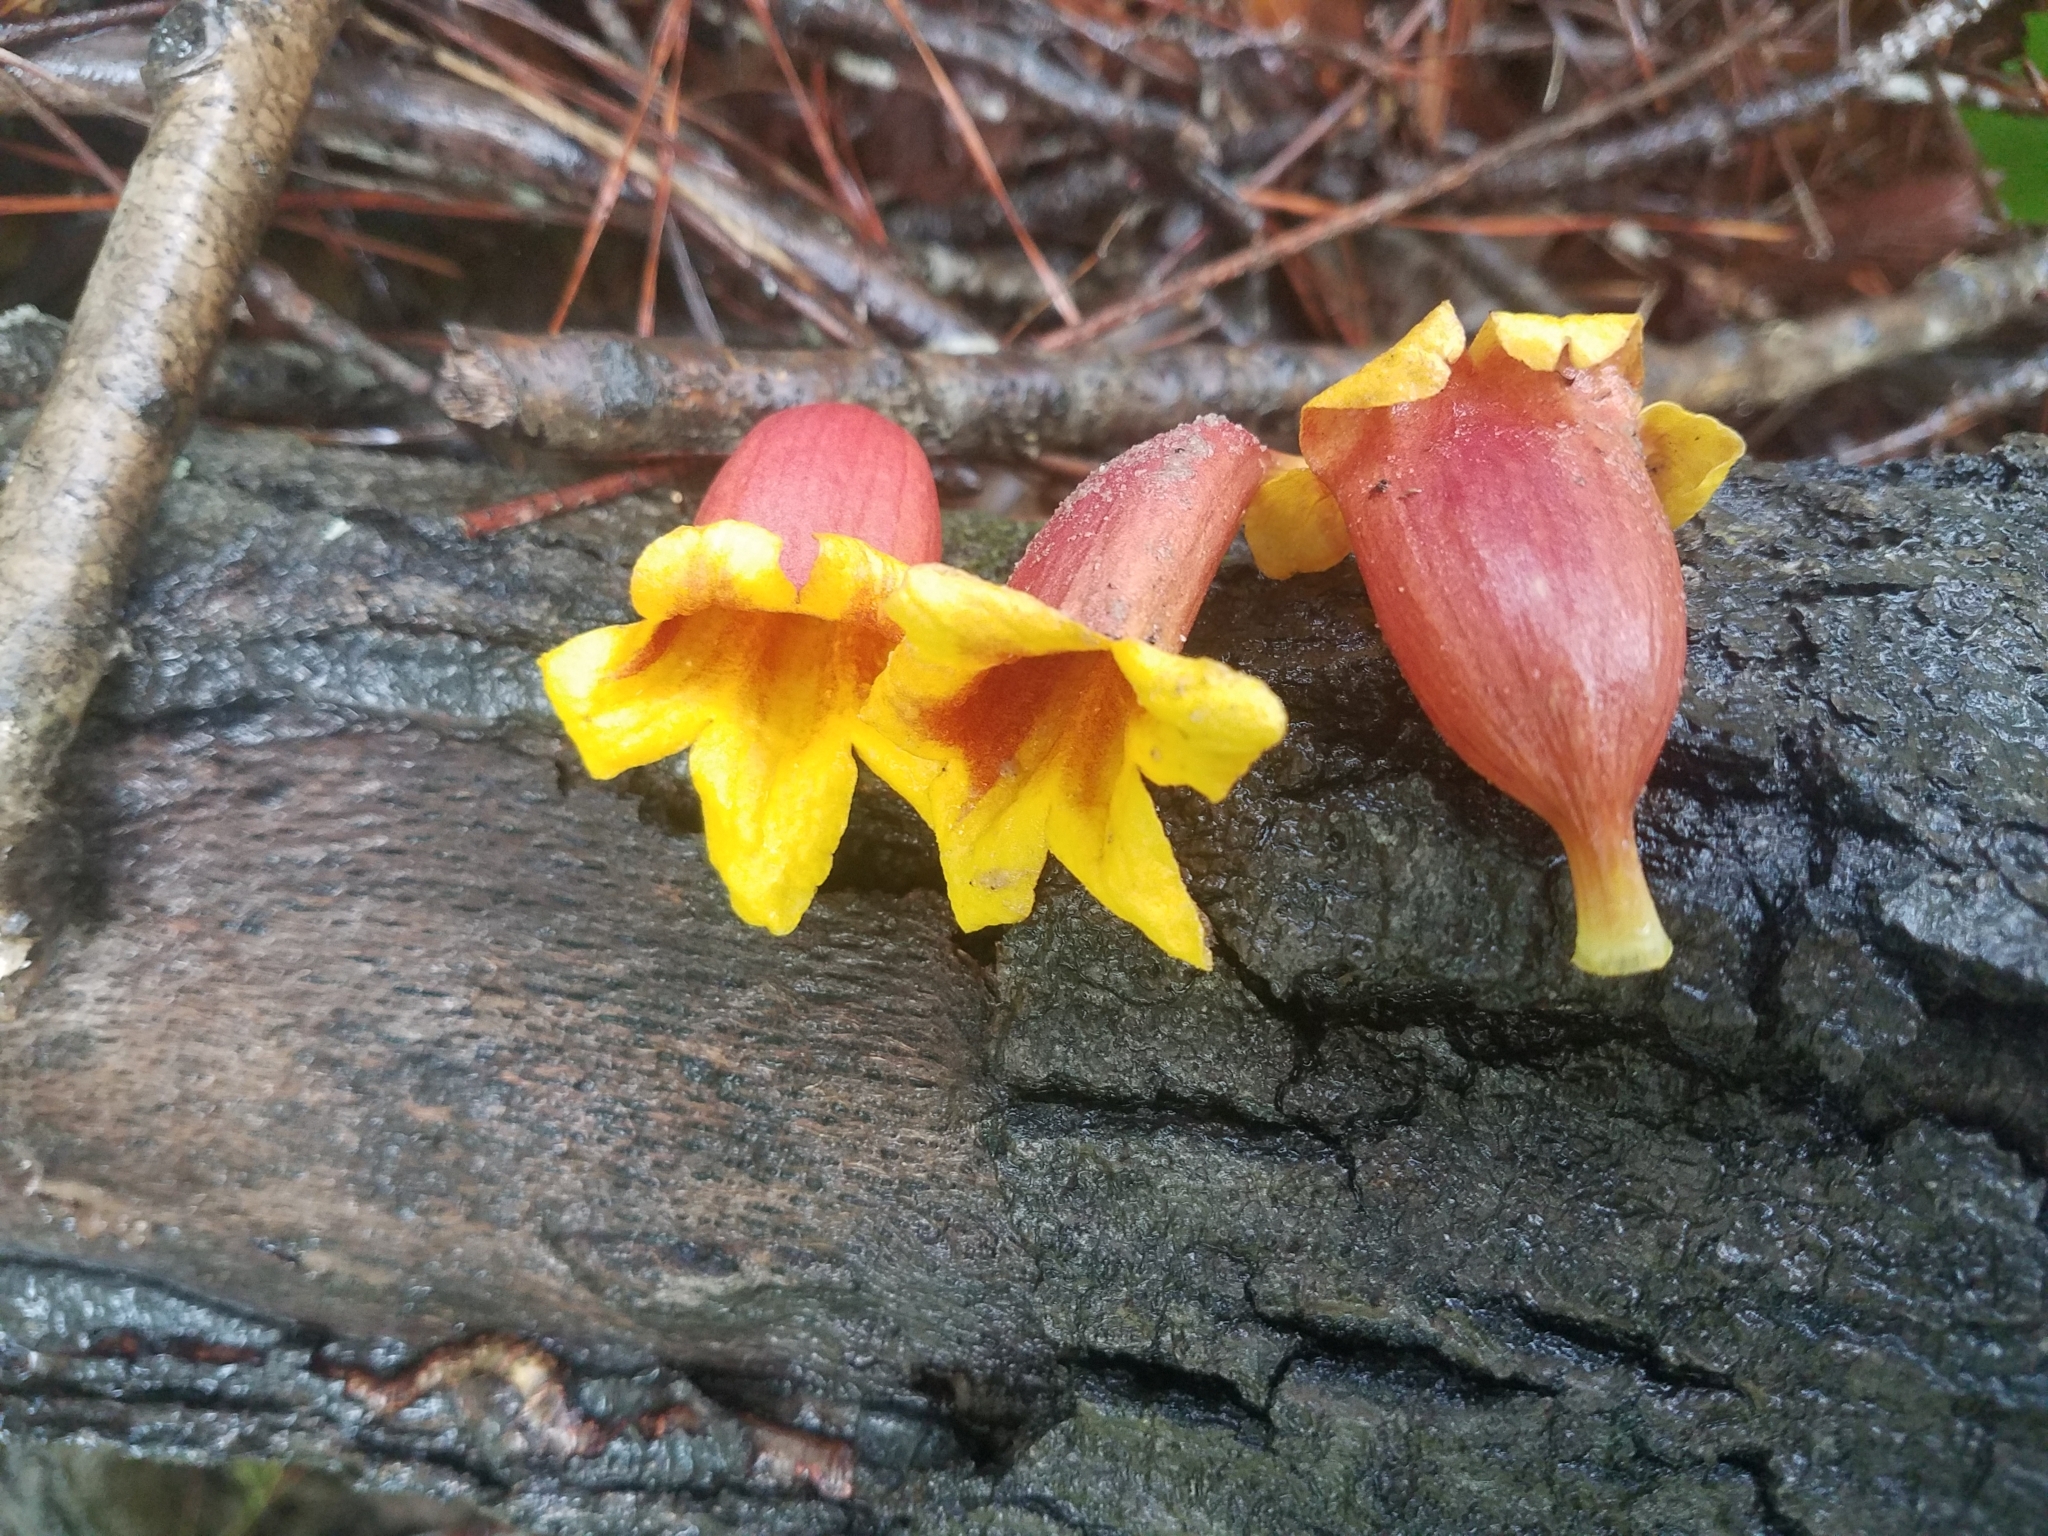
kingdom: Plantae
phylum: Tracheophyta
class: Magnoliopsida
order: Lamiales
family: Bignoniaceae
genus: Bignonia
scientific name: Bignonia capreolata
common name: Crossvine
